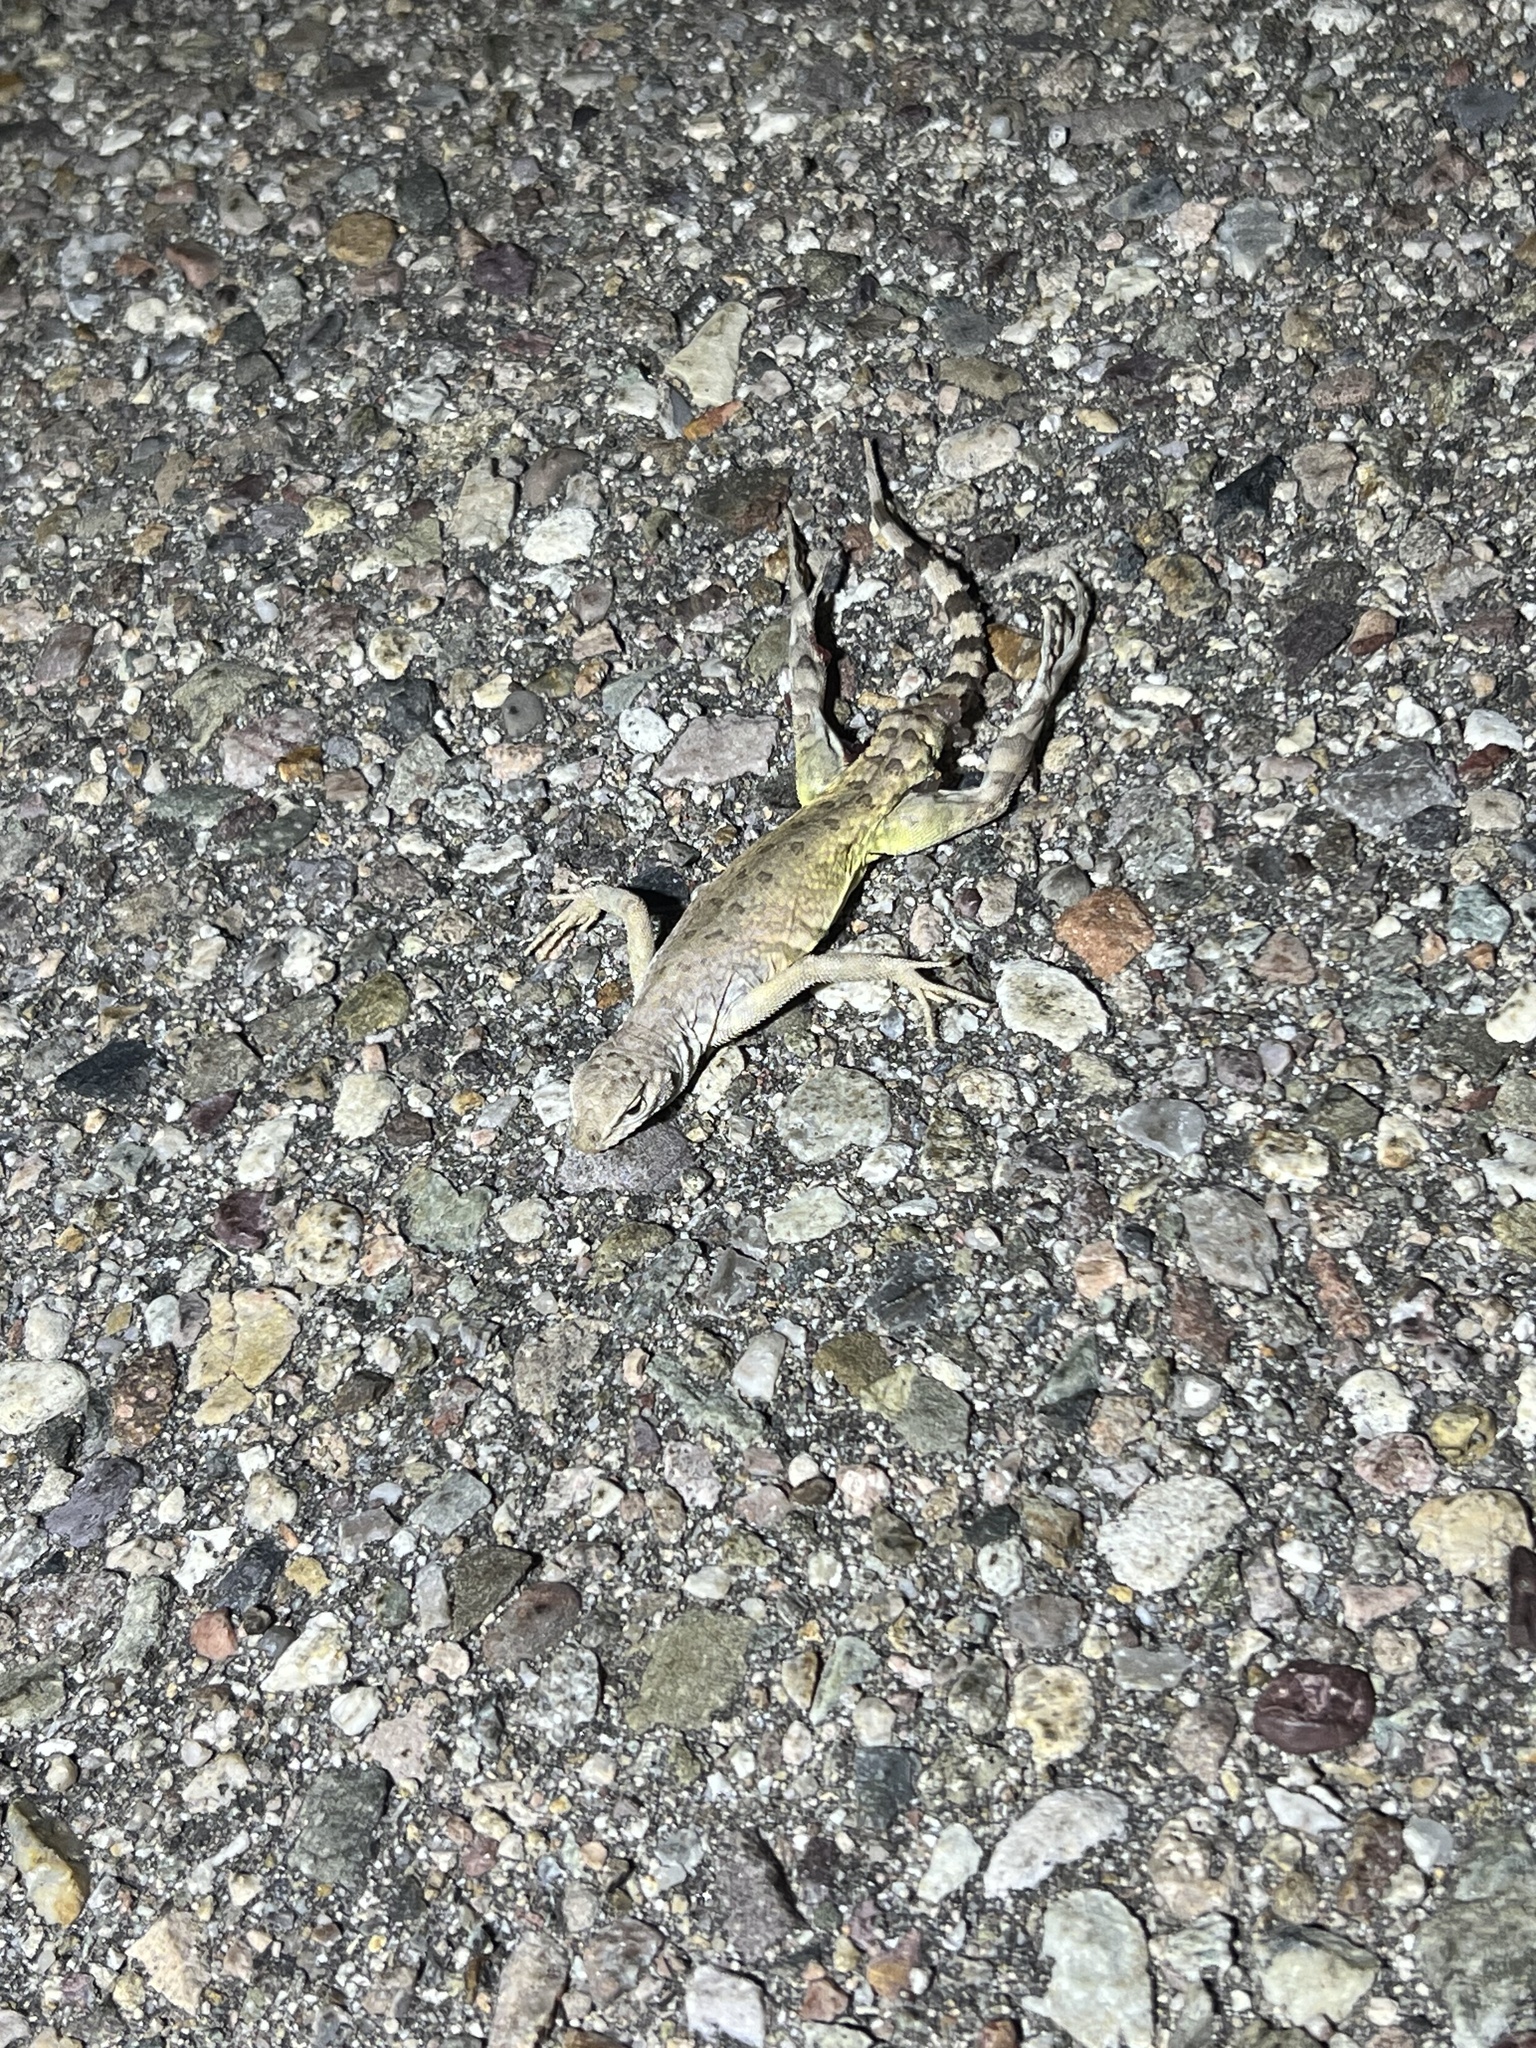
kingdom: Animalia
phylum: Chordata
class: Squamata
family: Phrynosomatidae
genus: Callisaurus
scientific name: Callisaurus draconoides
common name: Zebra-tailed lizard
